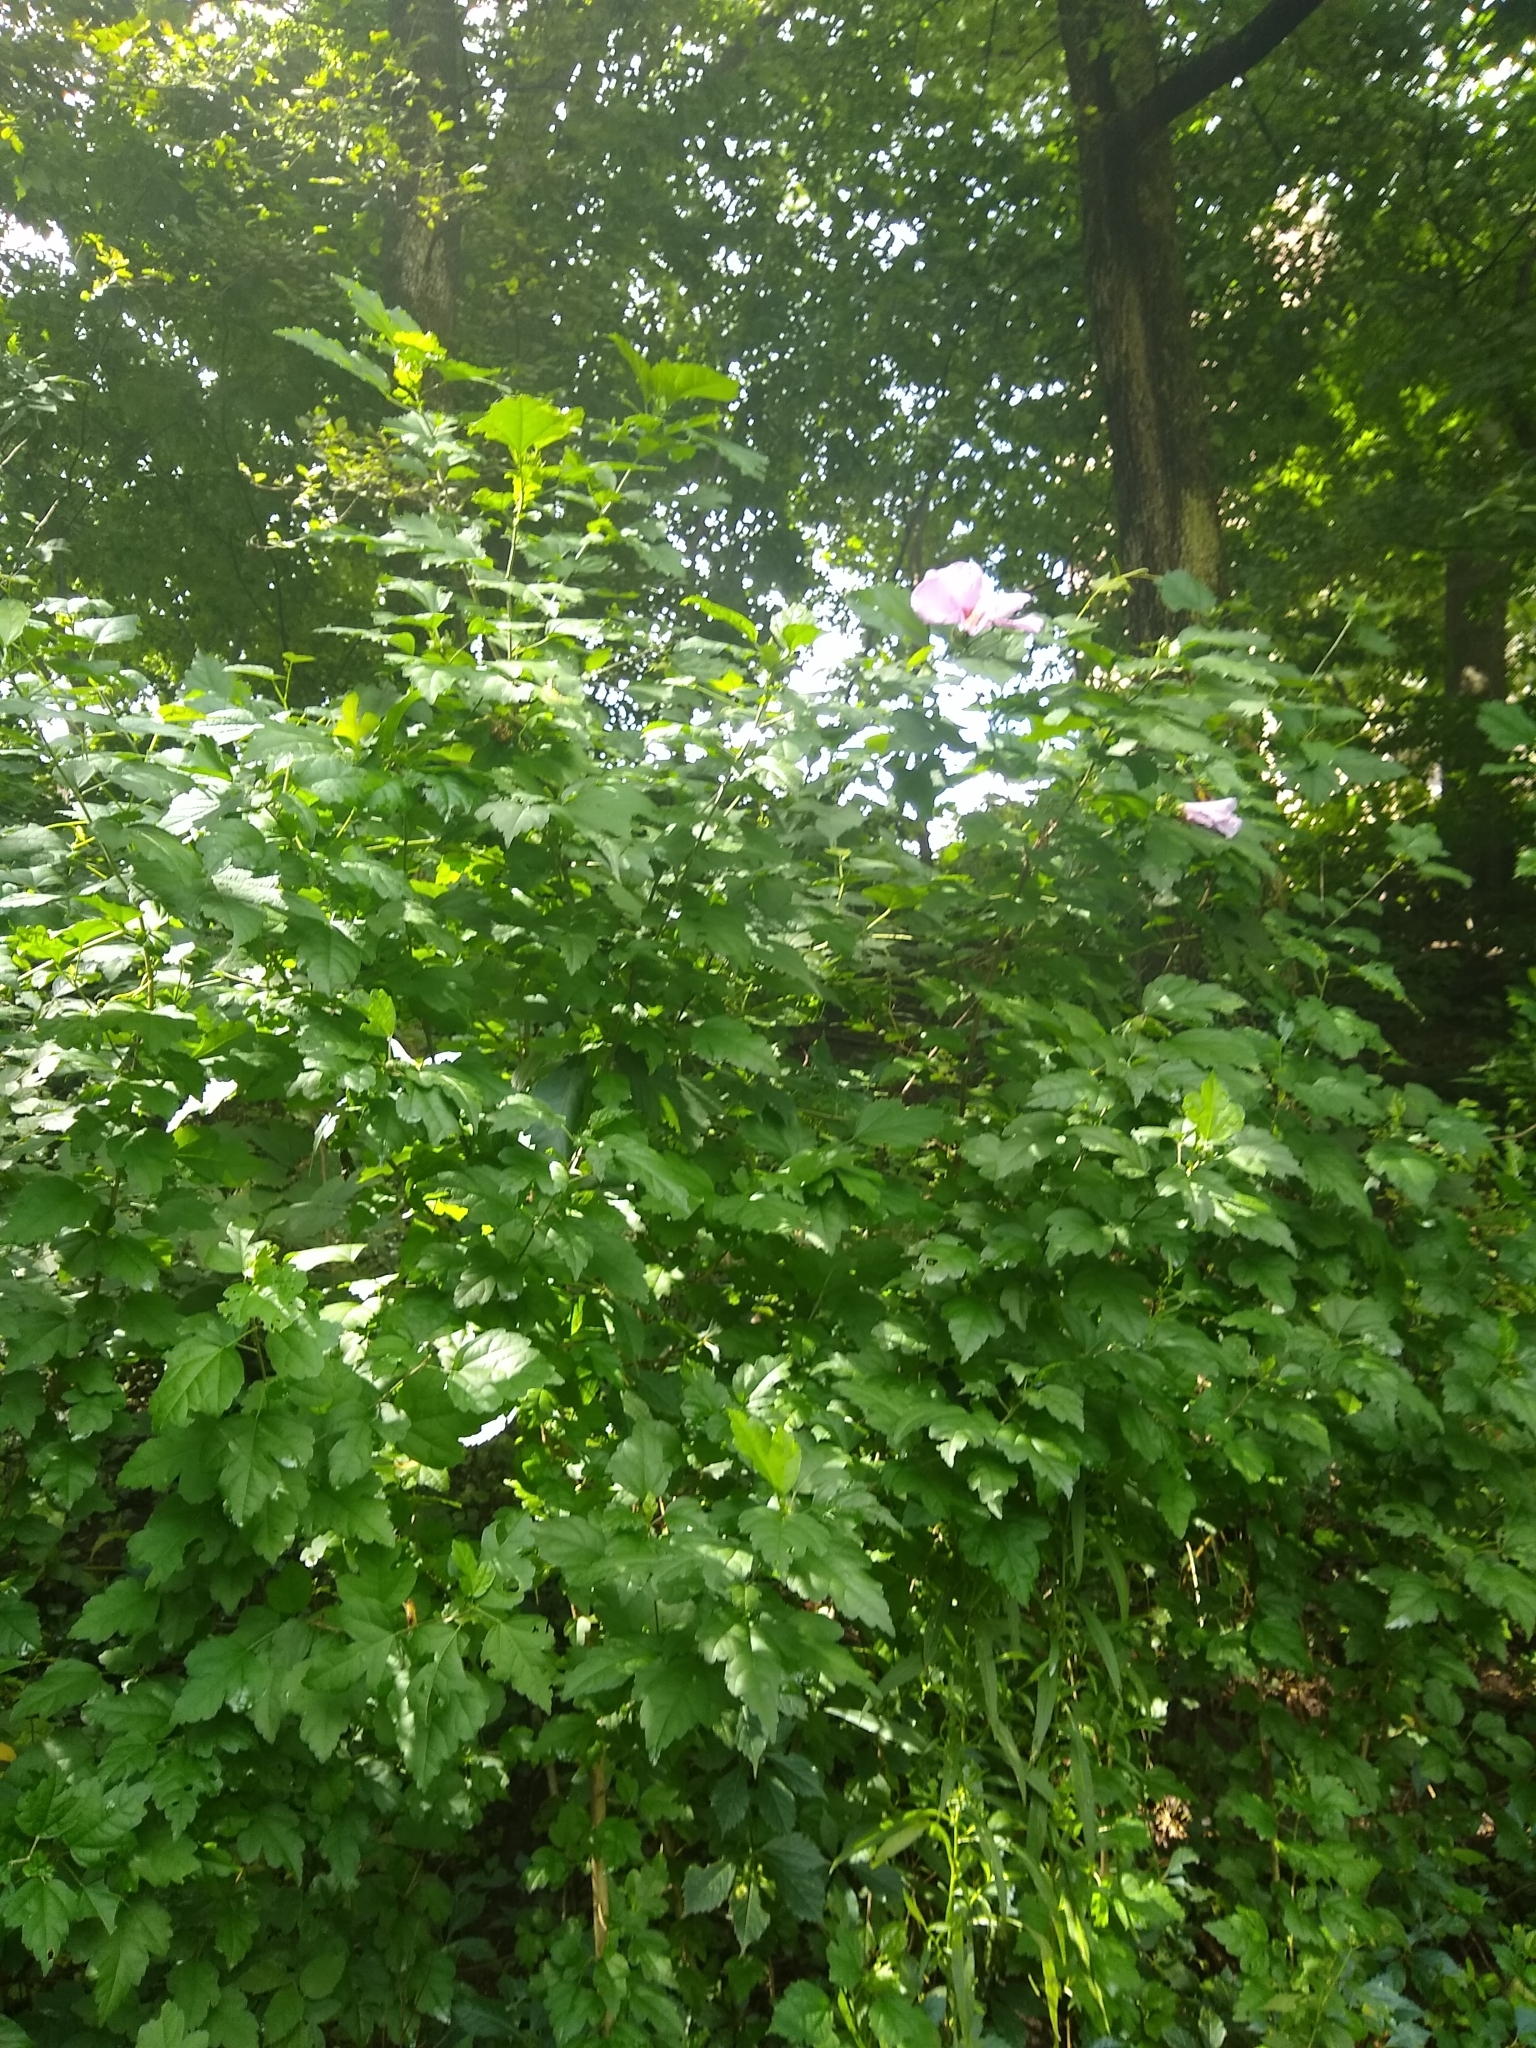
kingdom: Plantae
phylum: Tracheophyta
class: Magnoliopsida
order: Malvales
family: Malvaceae
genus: Hibiscus
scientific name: Hibiscus syriacus
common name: Syrian ketmia
